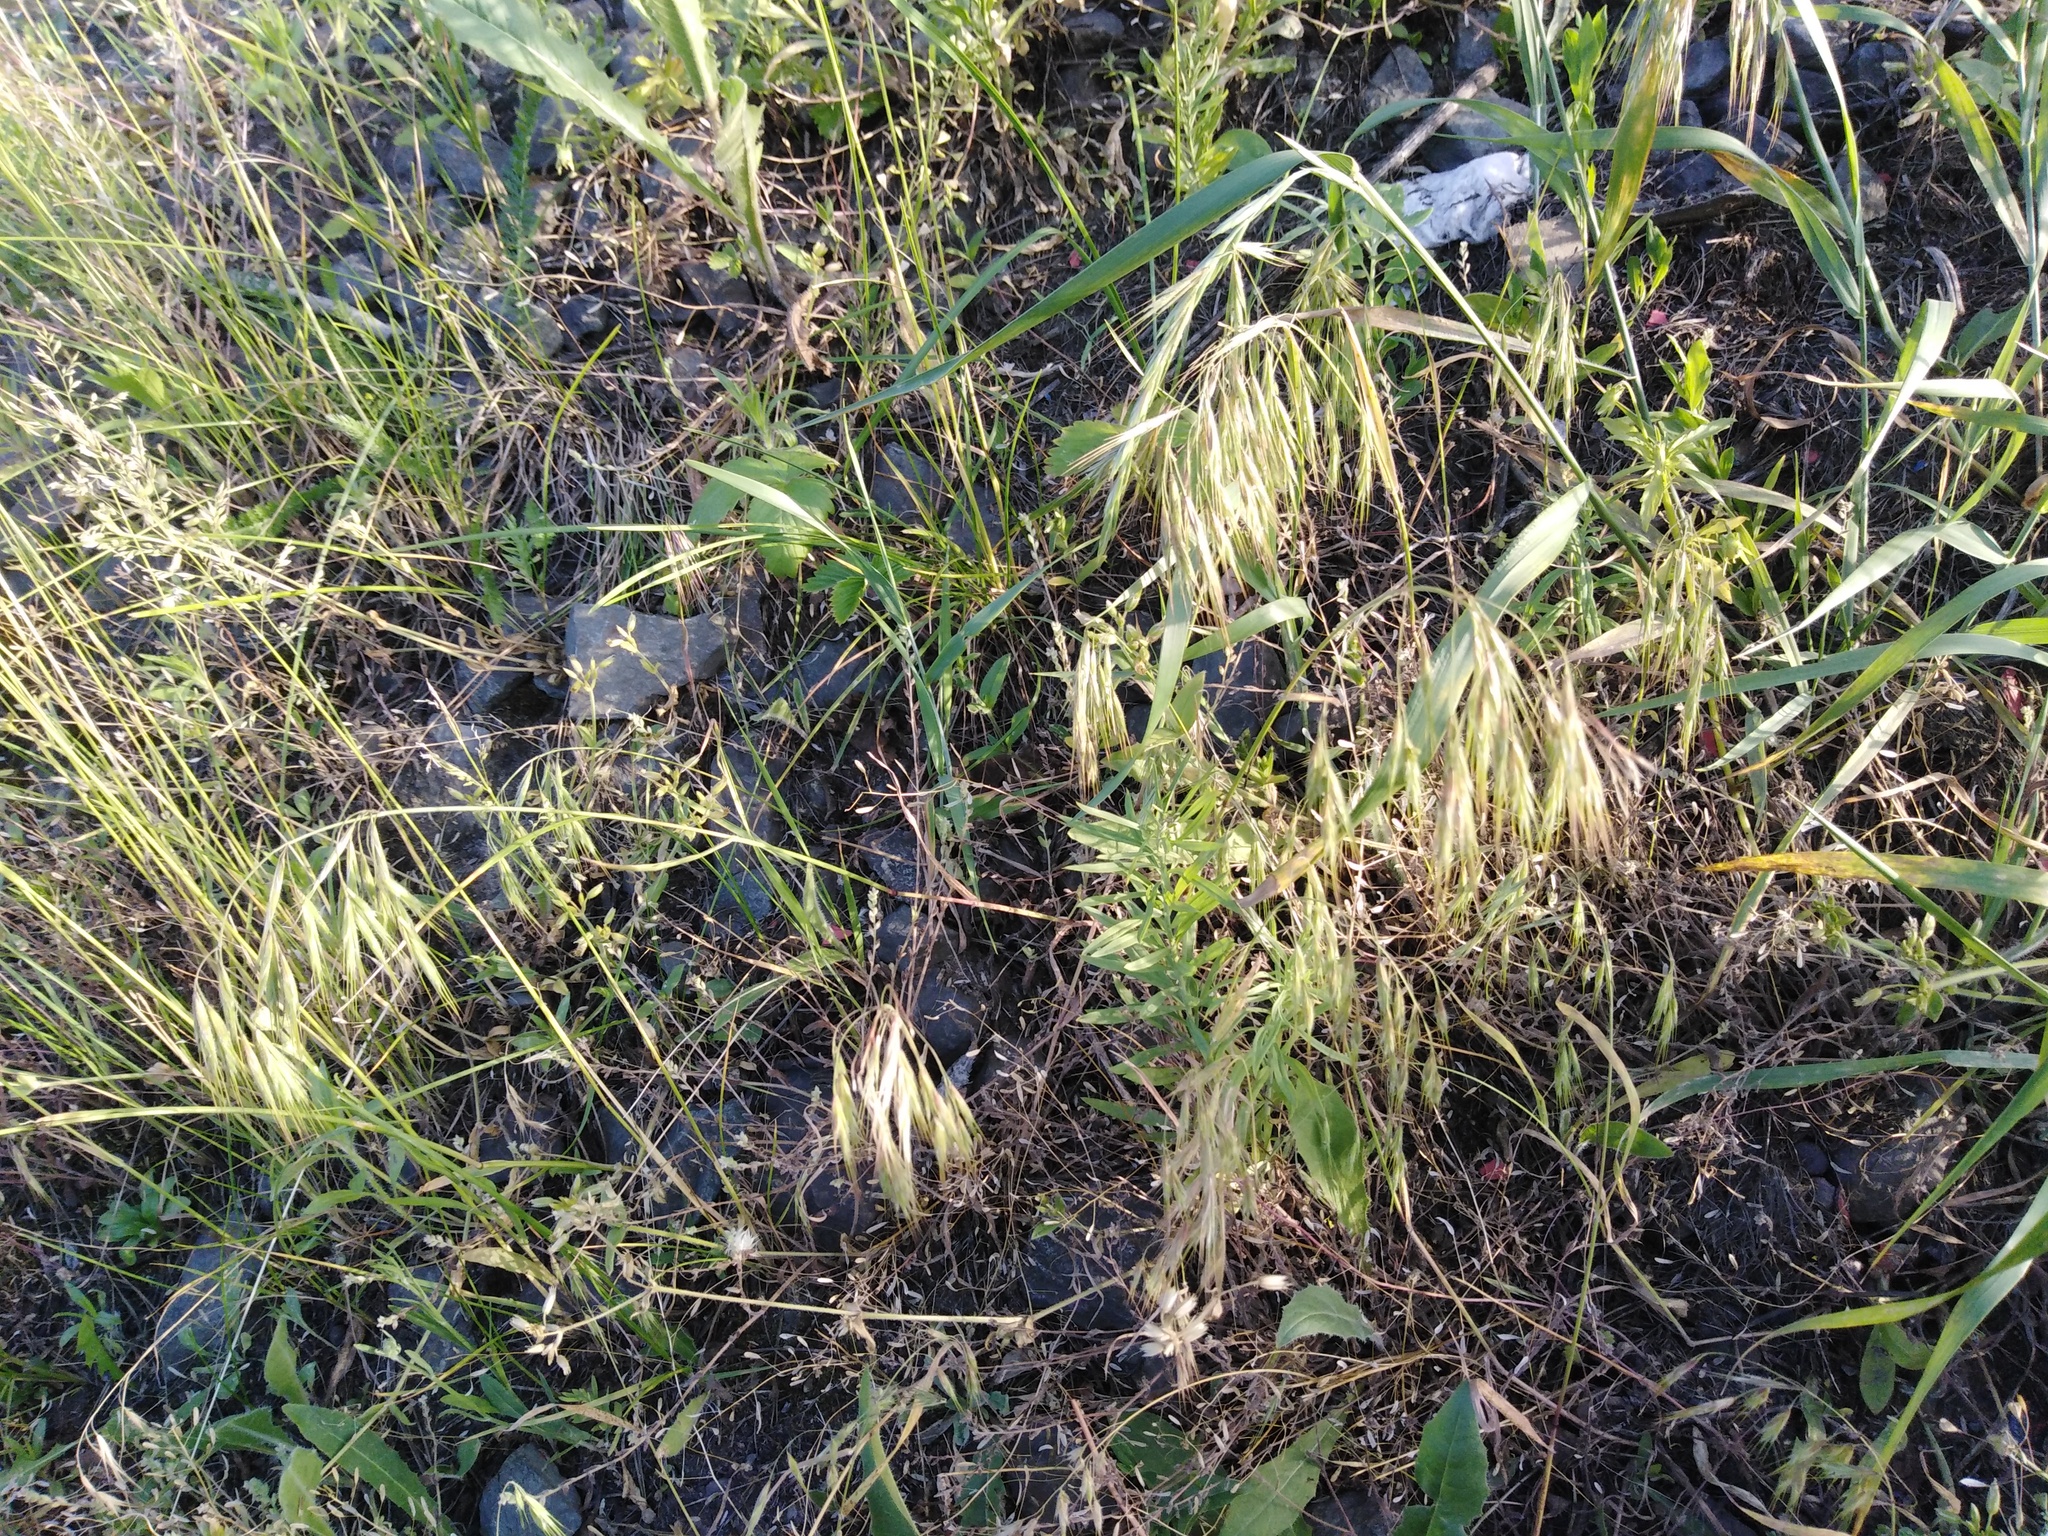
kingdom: Plantae
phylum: Tracheophyta
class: Liliopsida
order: Poales
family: Poaceae
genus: Bromus
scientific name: Bromus tectorum
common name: Cheatgrass
